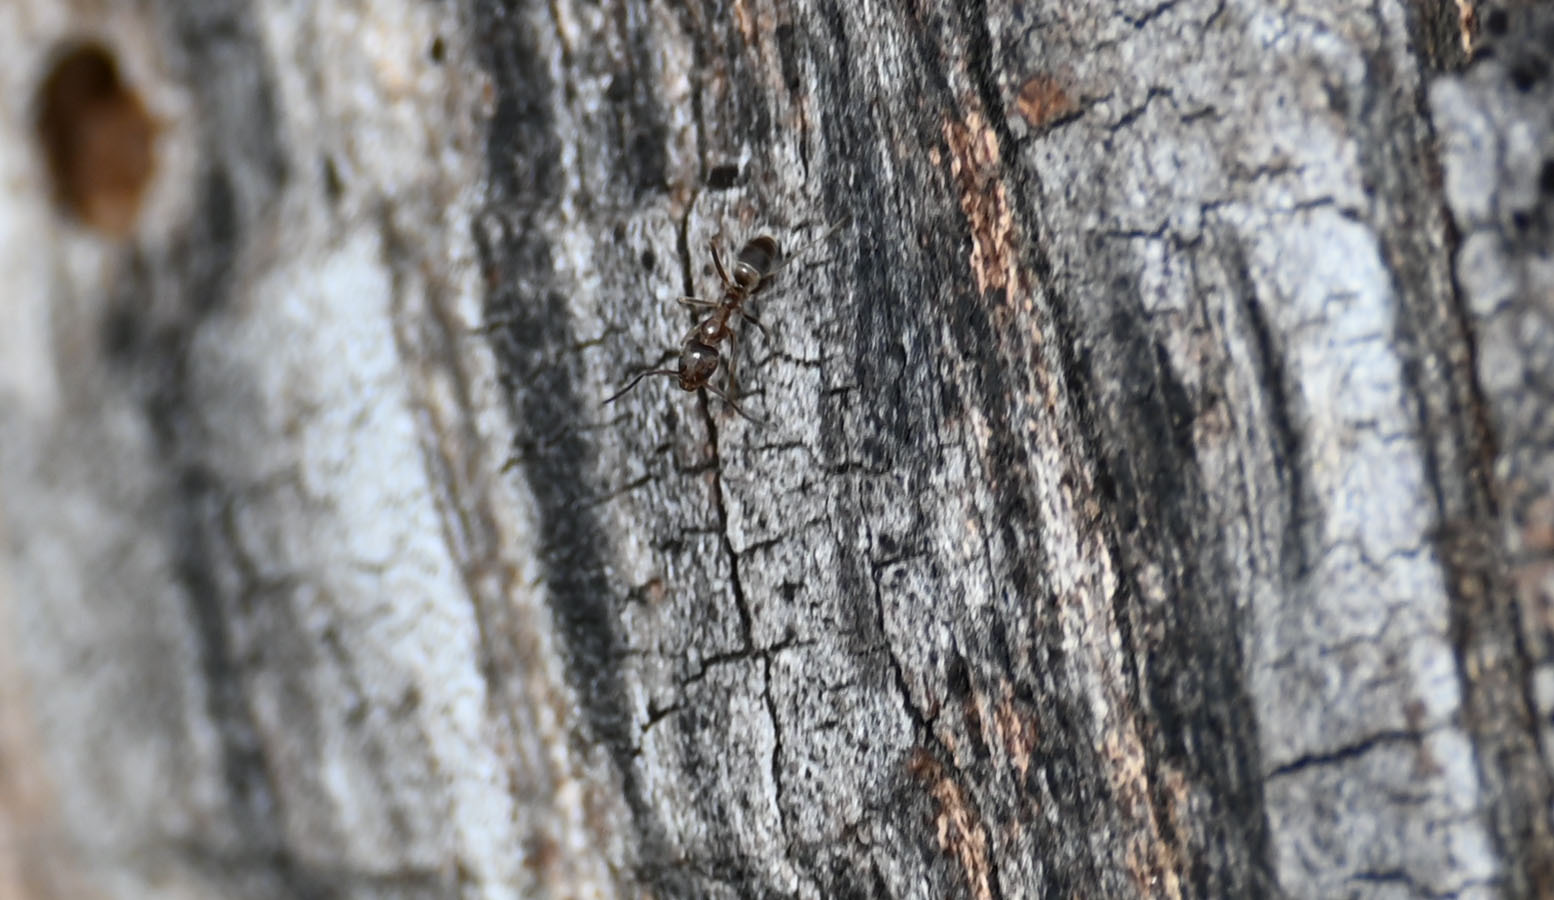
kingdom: Animalia
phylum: Arthropoda
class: Insecta
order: Hymenoptera
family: Formicidae
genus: Linepithema
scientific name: Linepithema humile
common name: Argentine ant
